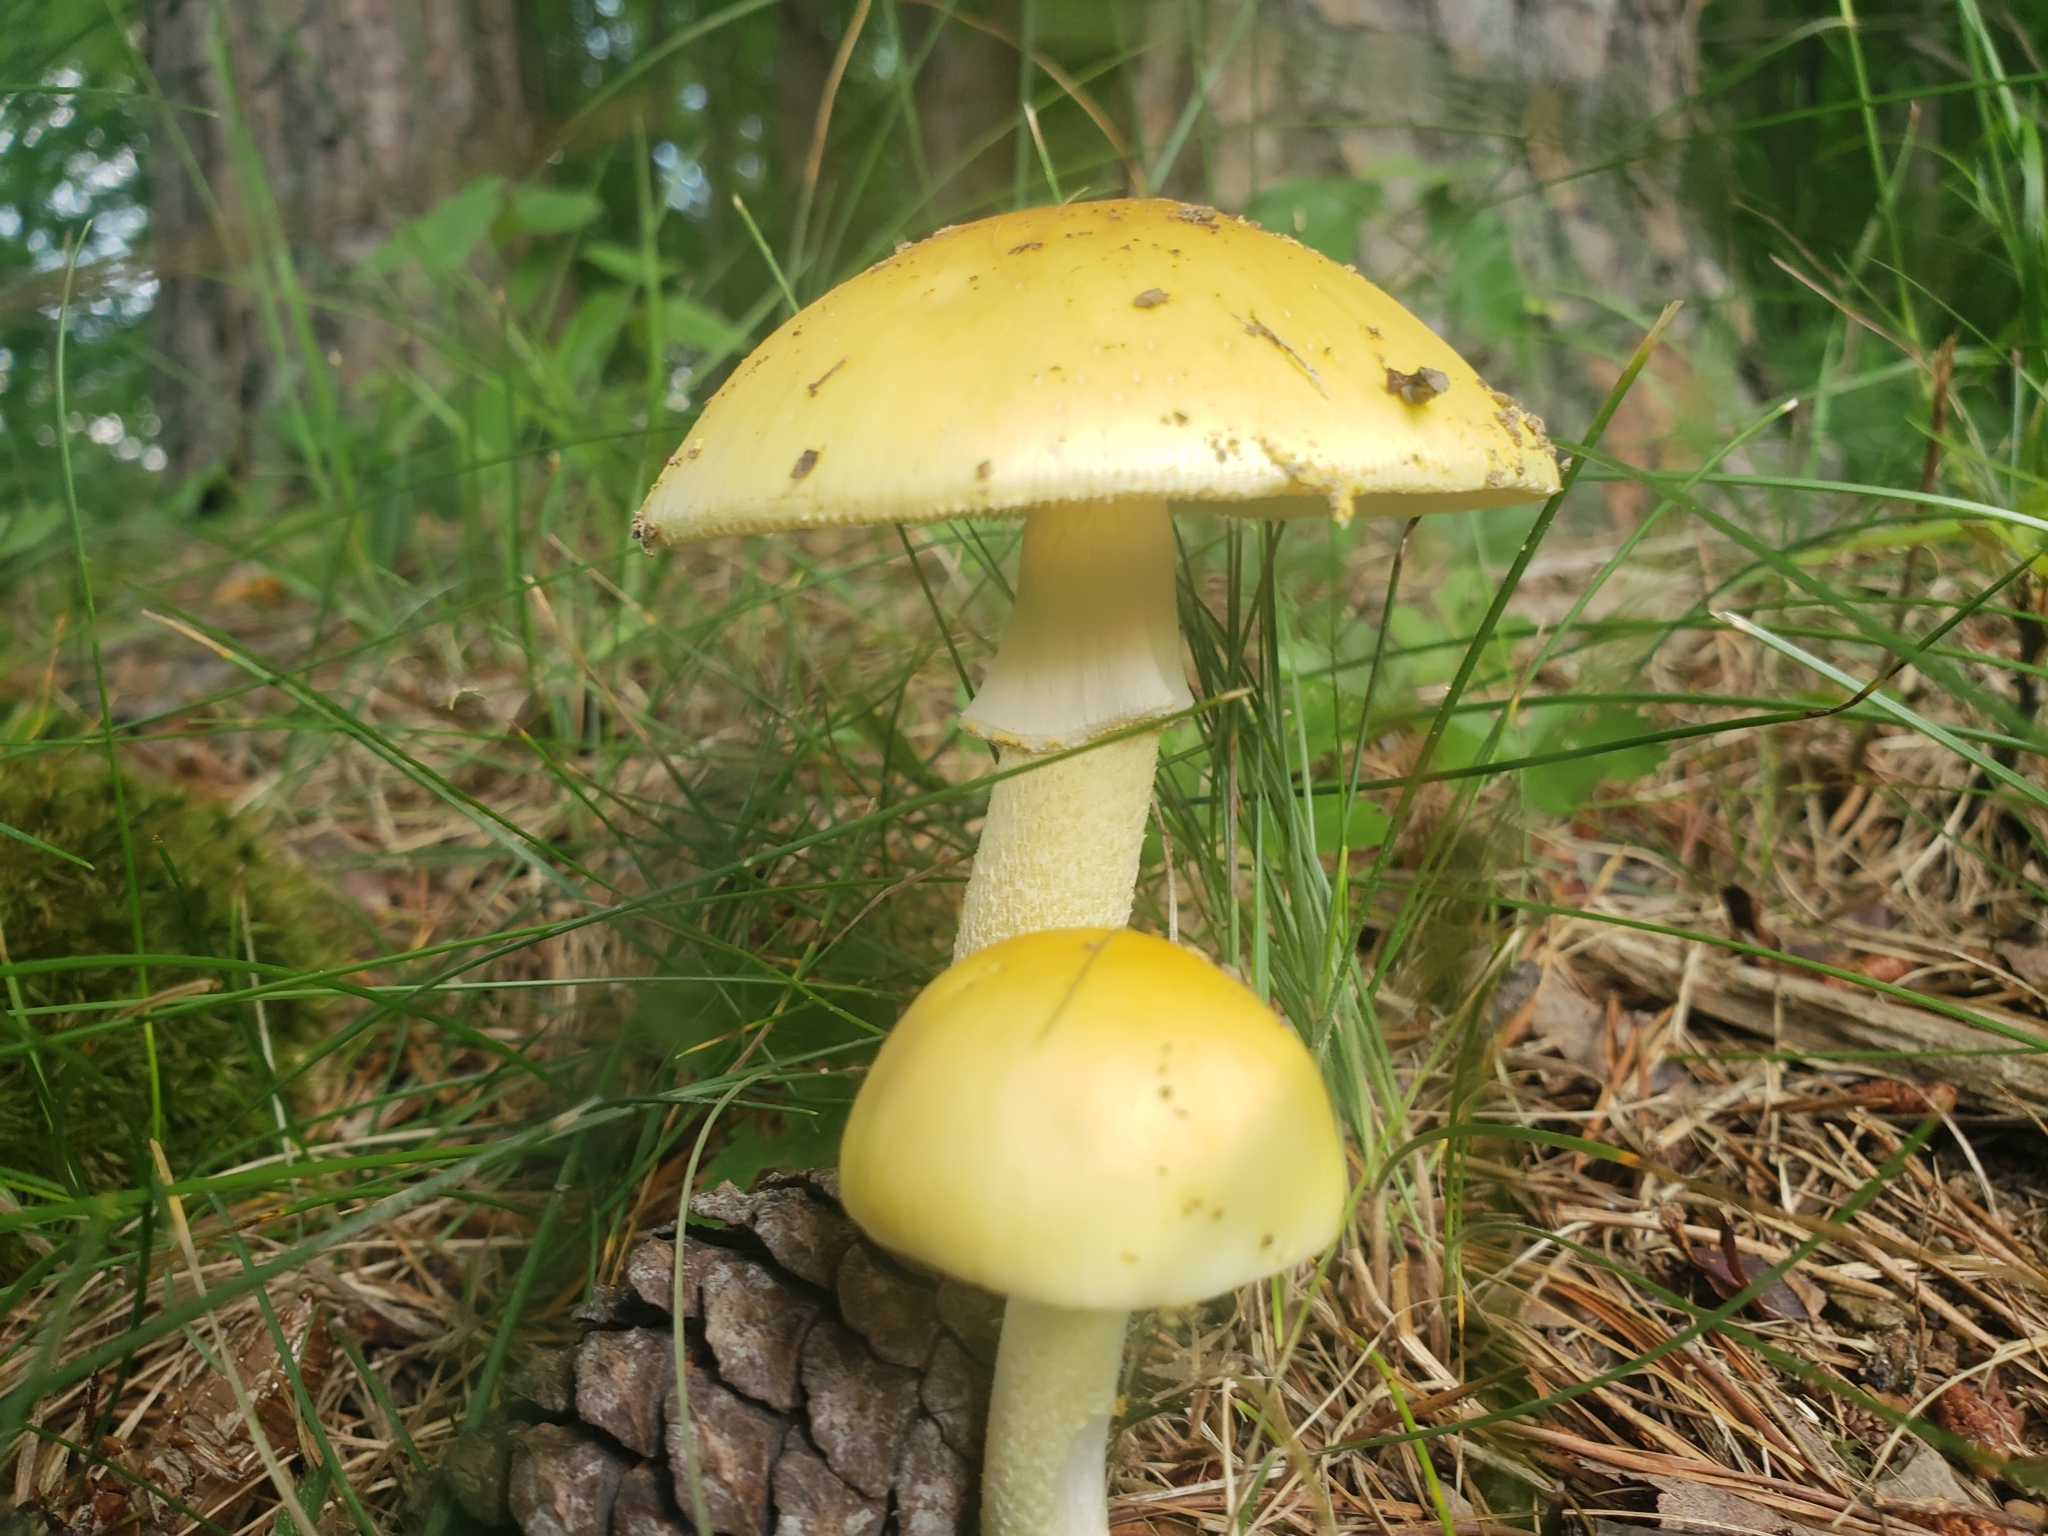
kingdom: Fungi
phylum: Basidiomycota
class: Agaricomycetes
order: Agaricales
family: Amanitaceae
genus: Amanita
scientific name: Amanita flavorubens
